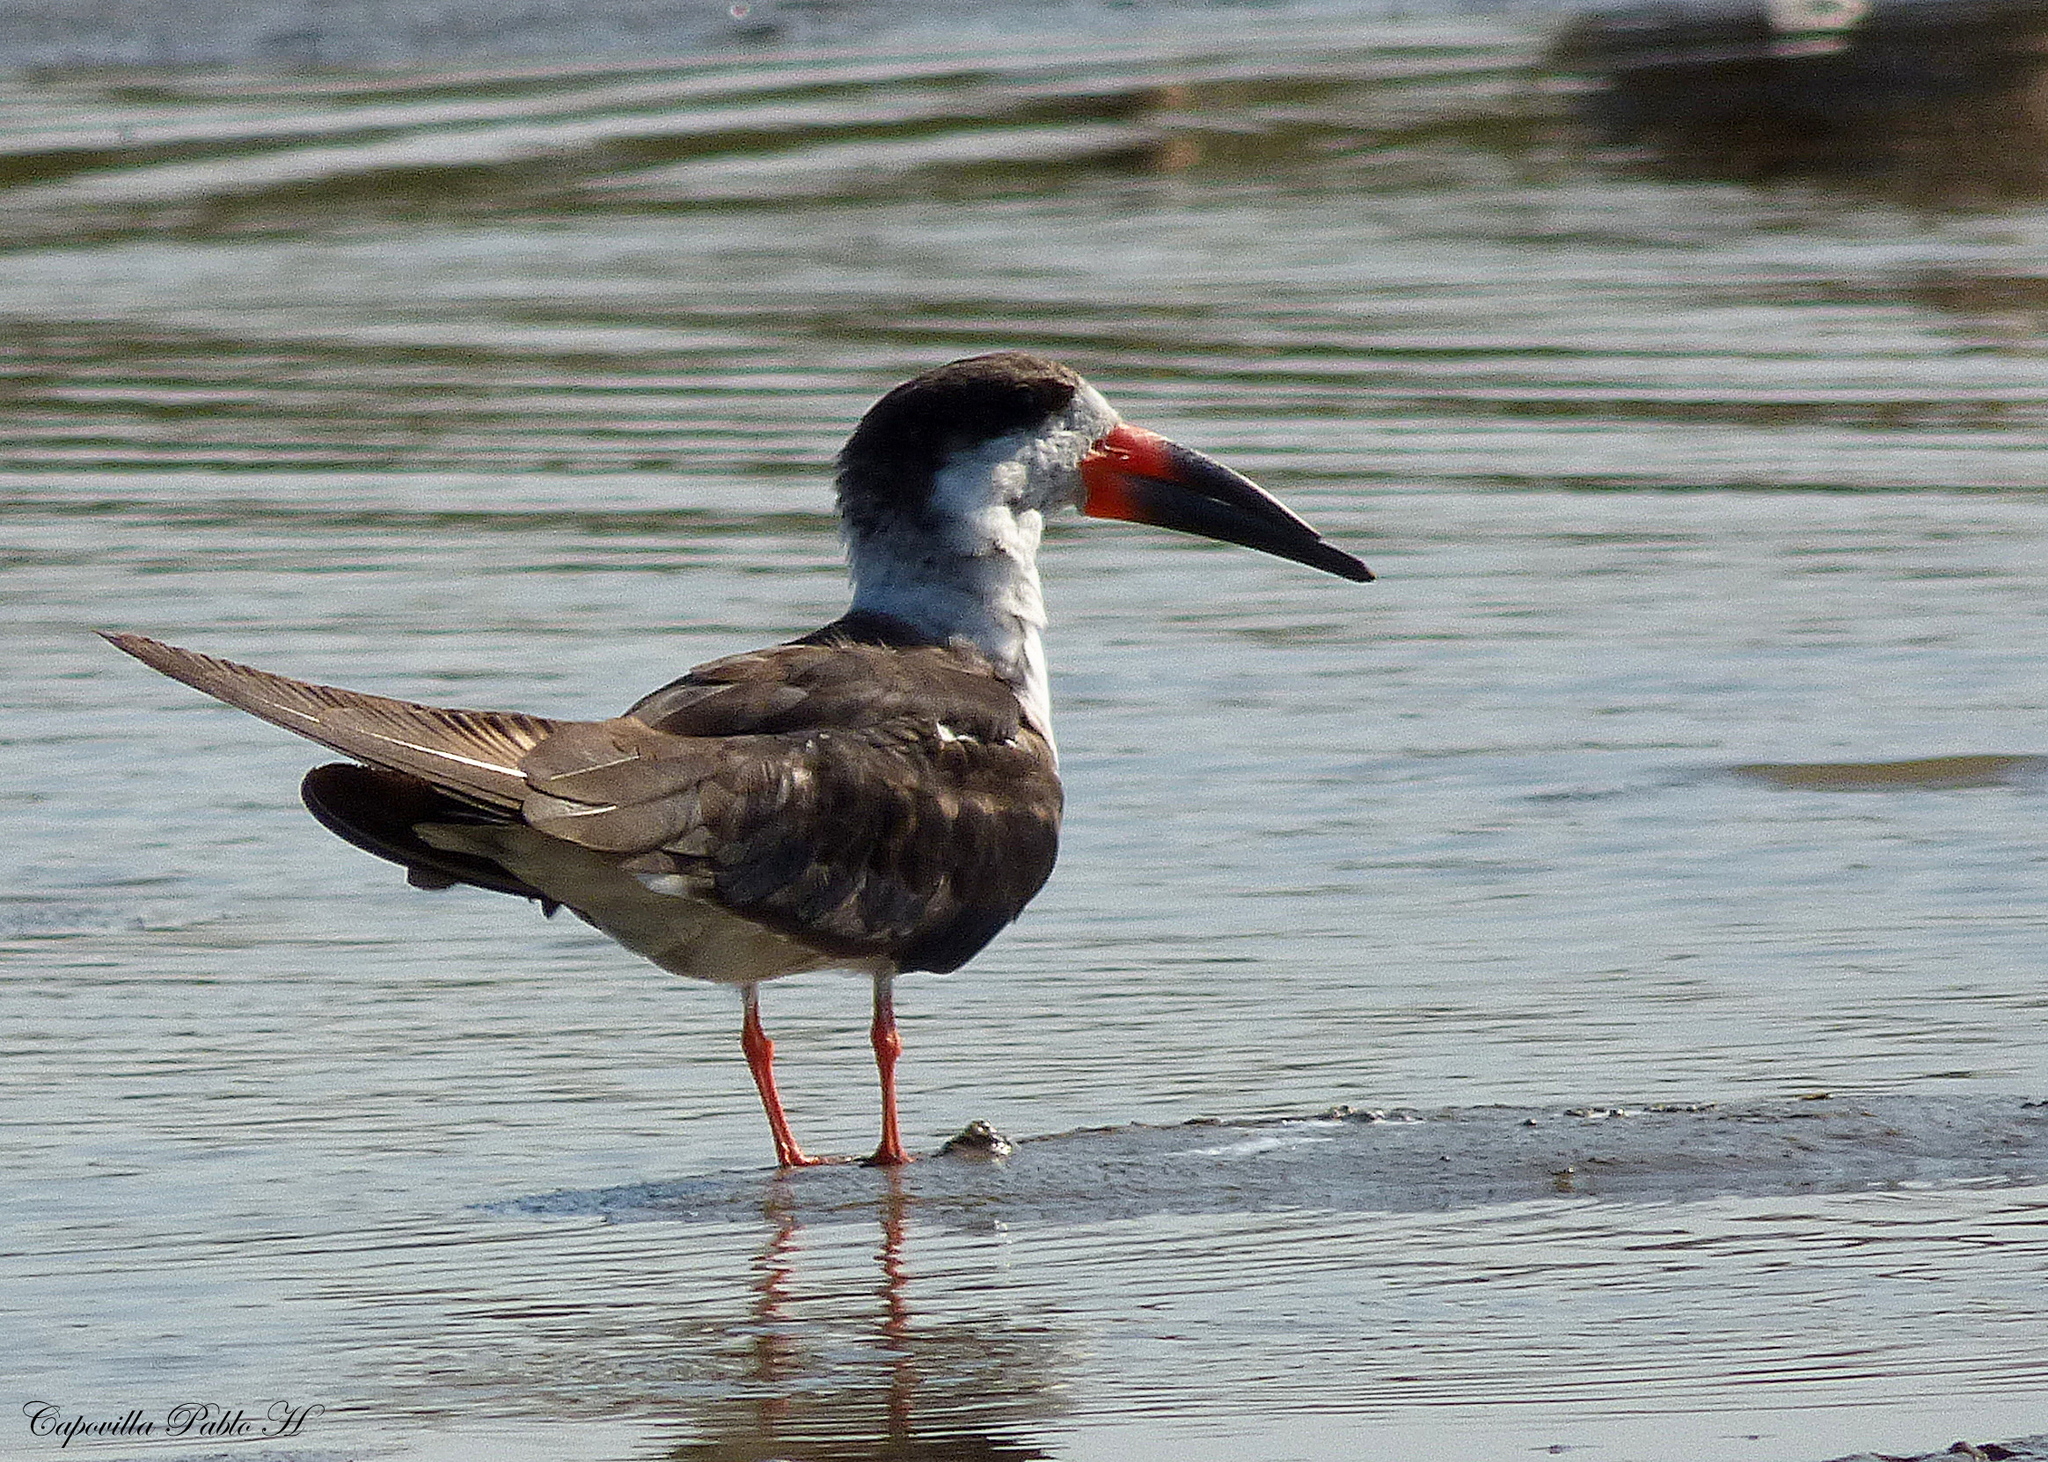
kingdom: Animalia
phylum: Chordata
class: Aves
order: Charadriiformes
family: Laridae
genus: Rynchops
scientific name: Rynchops niger
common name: Black skimmer
